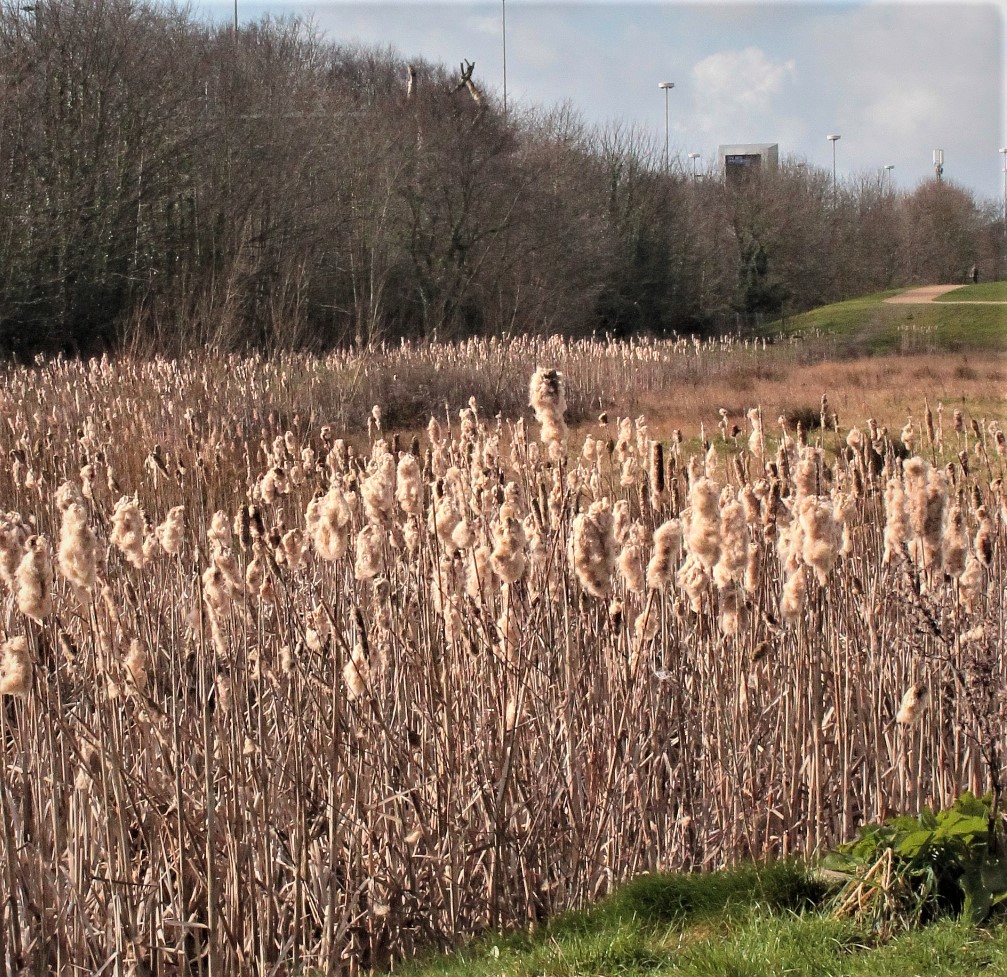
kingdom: Plantae
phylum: Tracheophyta
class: Liliopsida
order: Poales
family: Typhaceae
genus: Typha
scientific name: Typha latifolia
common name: Broadleaf cattail
